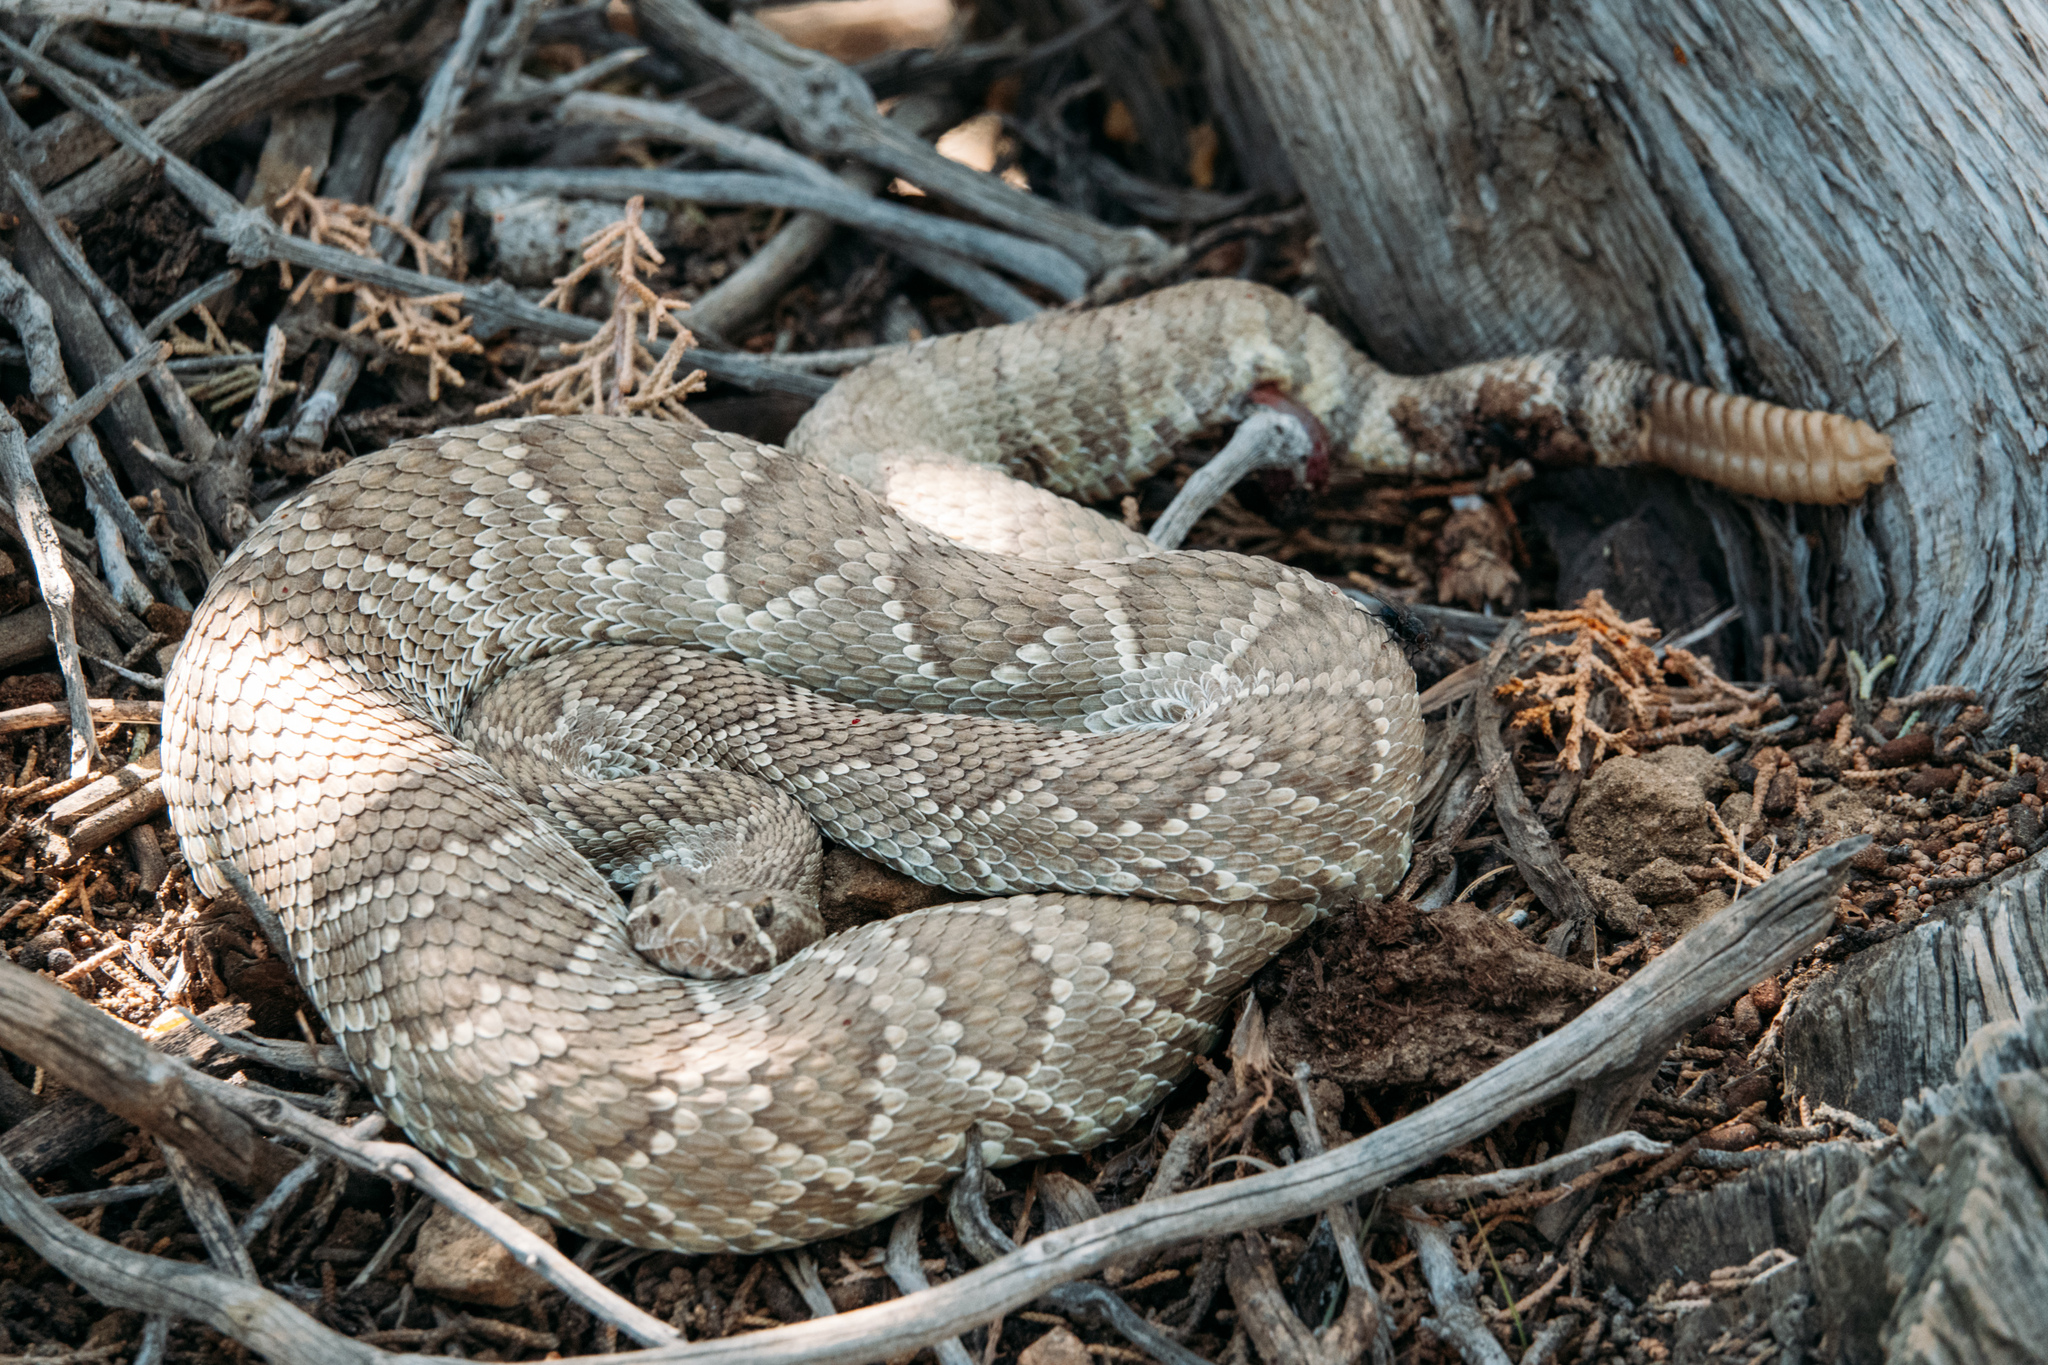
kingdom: Animalia
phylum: Chordata
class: Squamata
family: Viperidae
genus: Crotalus
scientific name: Crotalus scutulatus
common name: Scutulatus
